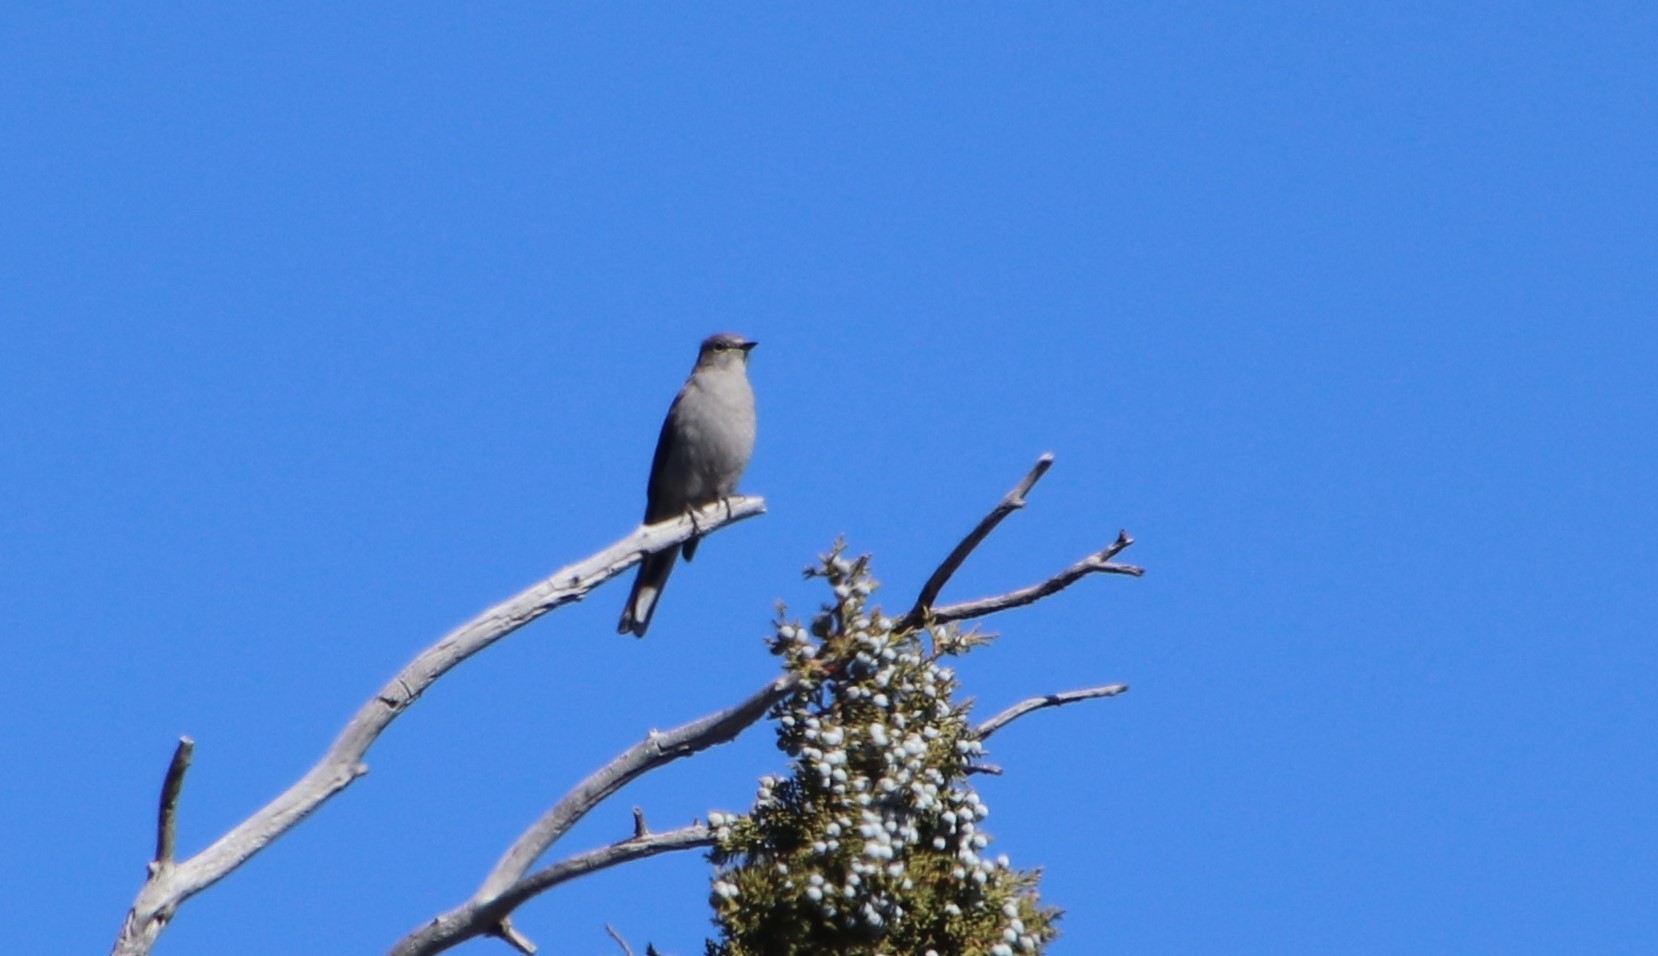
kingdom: Animalia
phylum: Chordata
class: Aves
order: Passeriformes
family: Turdidae
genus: Myadestes
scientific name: Myadestes townsendi
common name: Townsend's solitaire
